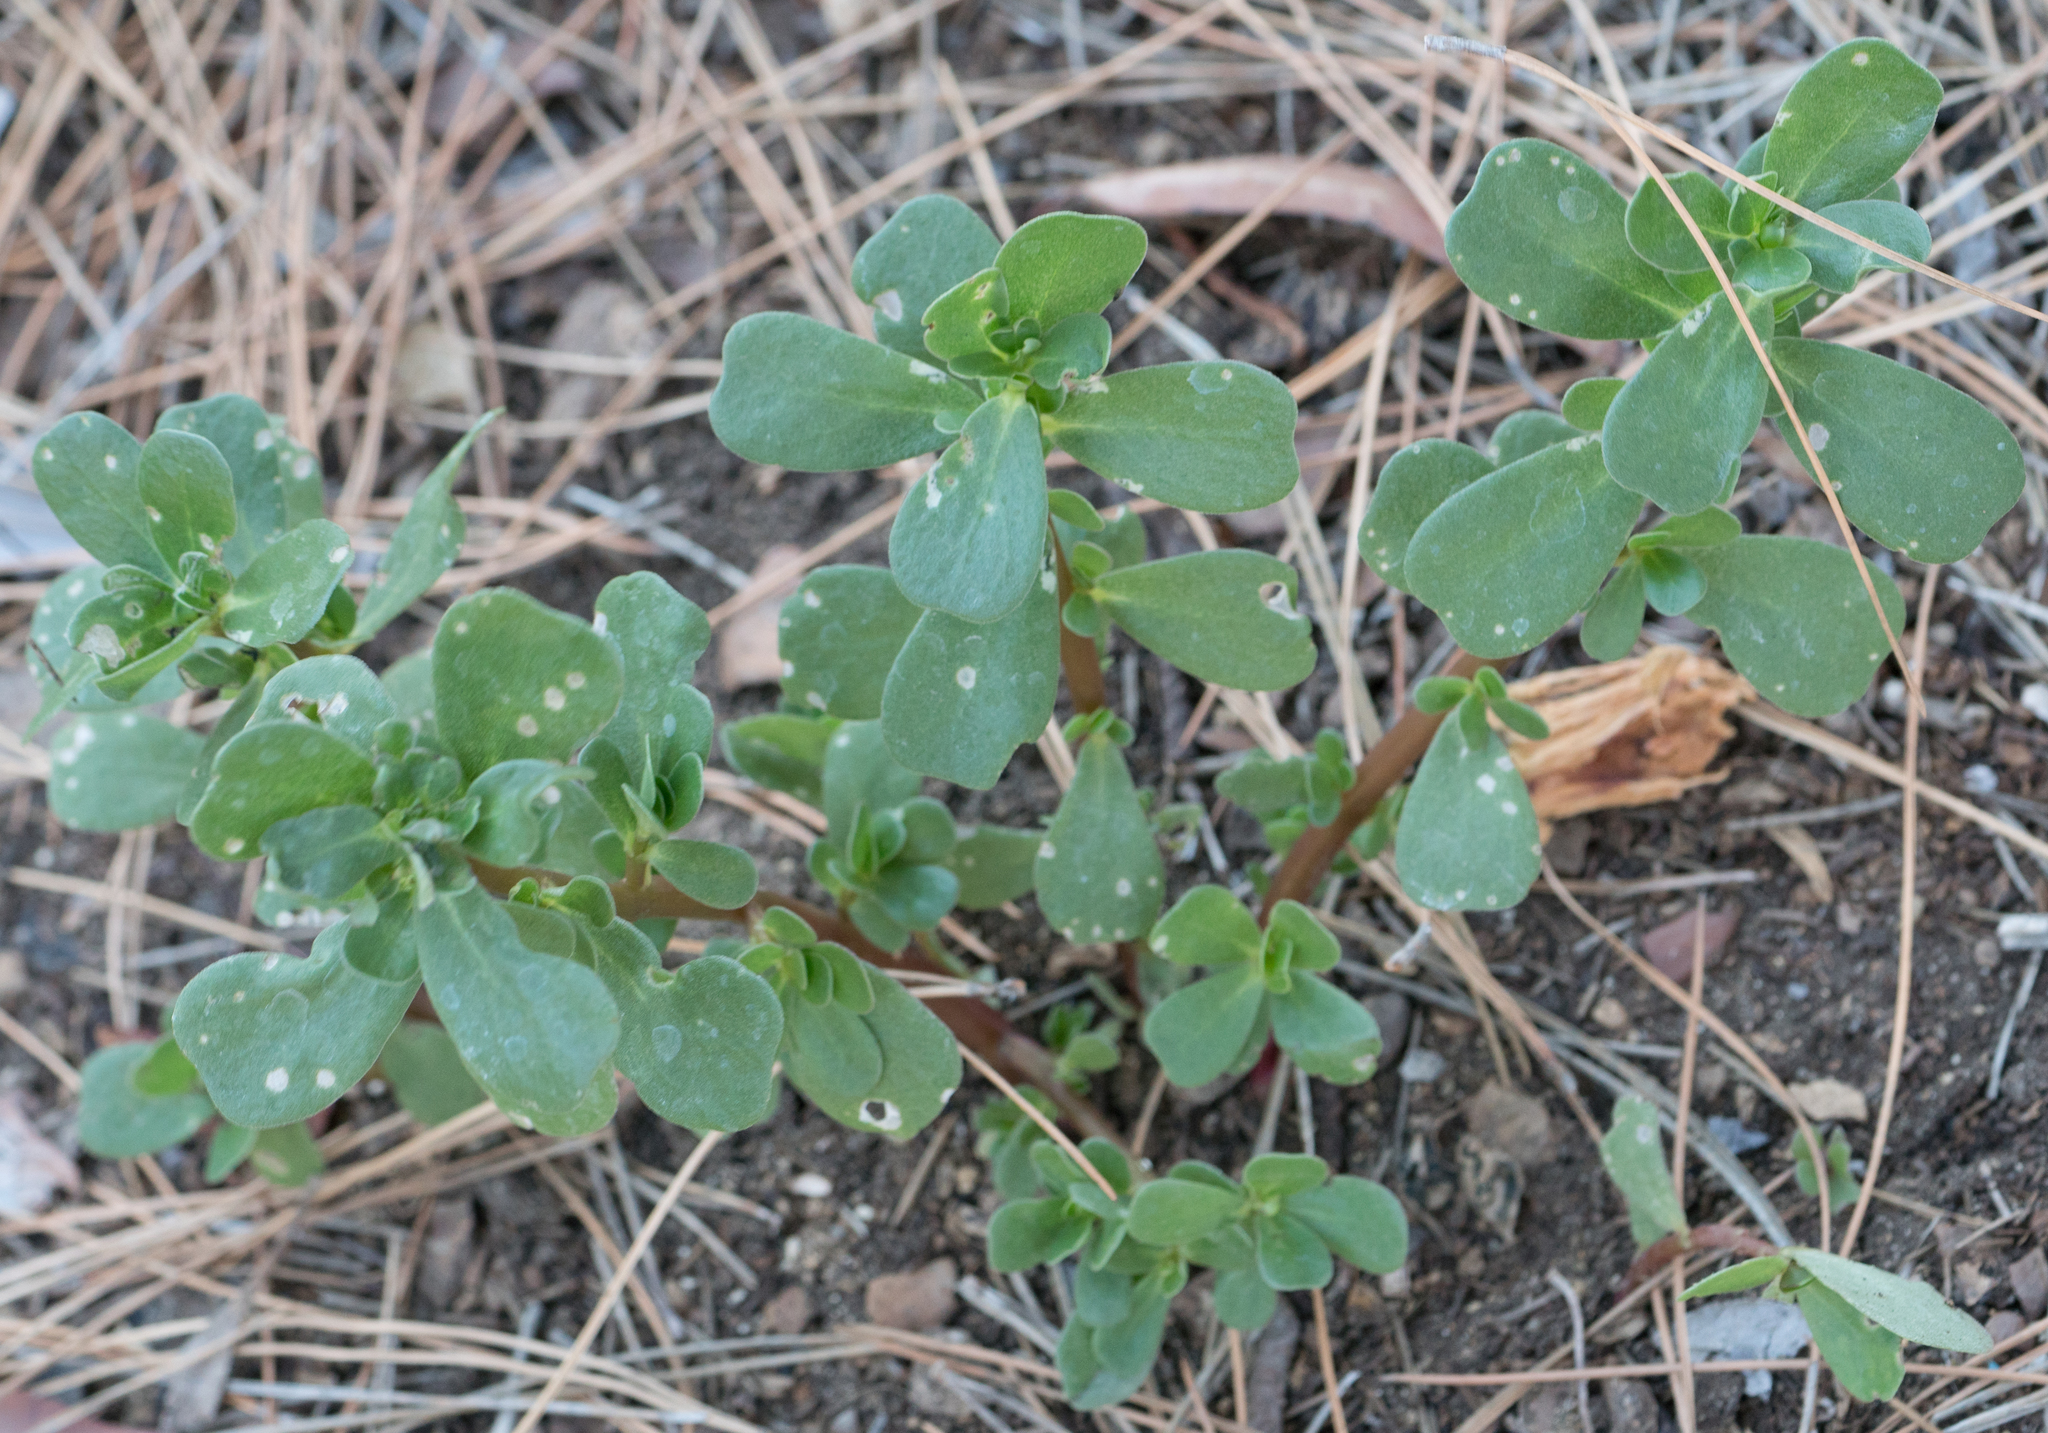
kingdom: Plantae
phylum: Tracheophyta
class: Magnoliopsida
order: Caryophyllales
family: Portulacaceae
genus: Portulaca
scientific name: Portulaca oleracea
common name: Common purslane
